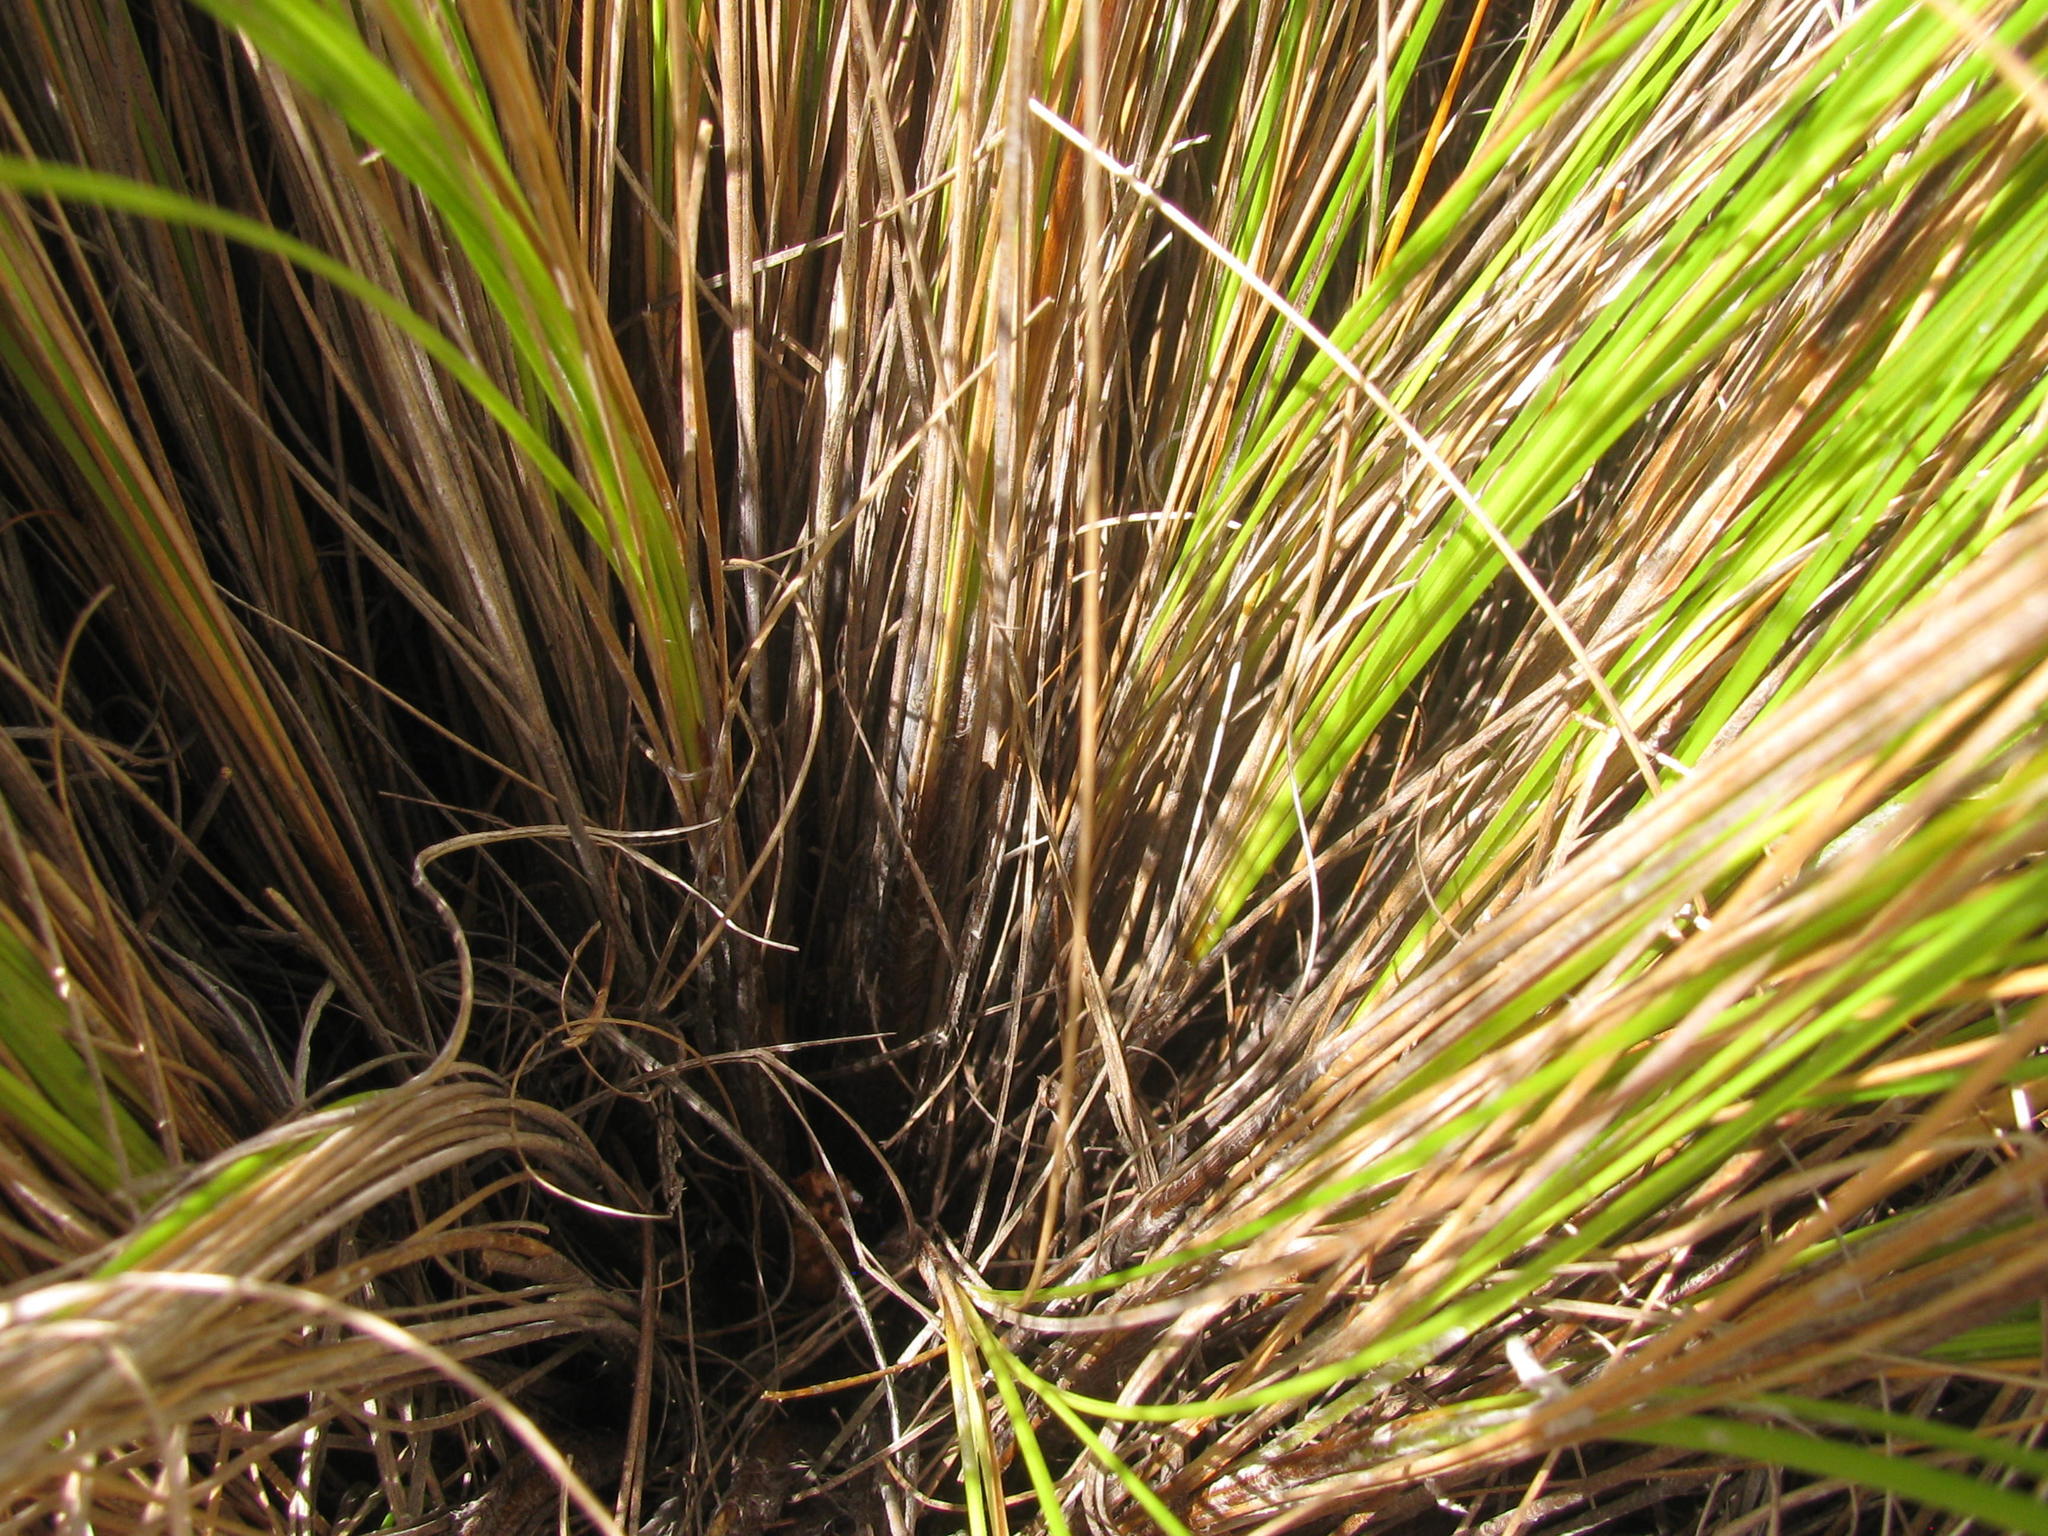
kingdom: Plantae
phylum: Tracheophyta
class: Liliopsida
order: Poales
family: Cyperaceae
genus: Tetraria
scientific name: Tetraria capillacea
